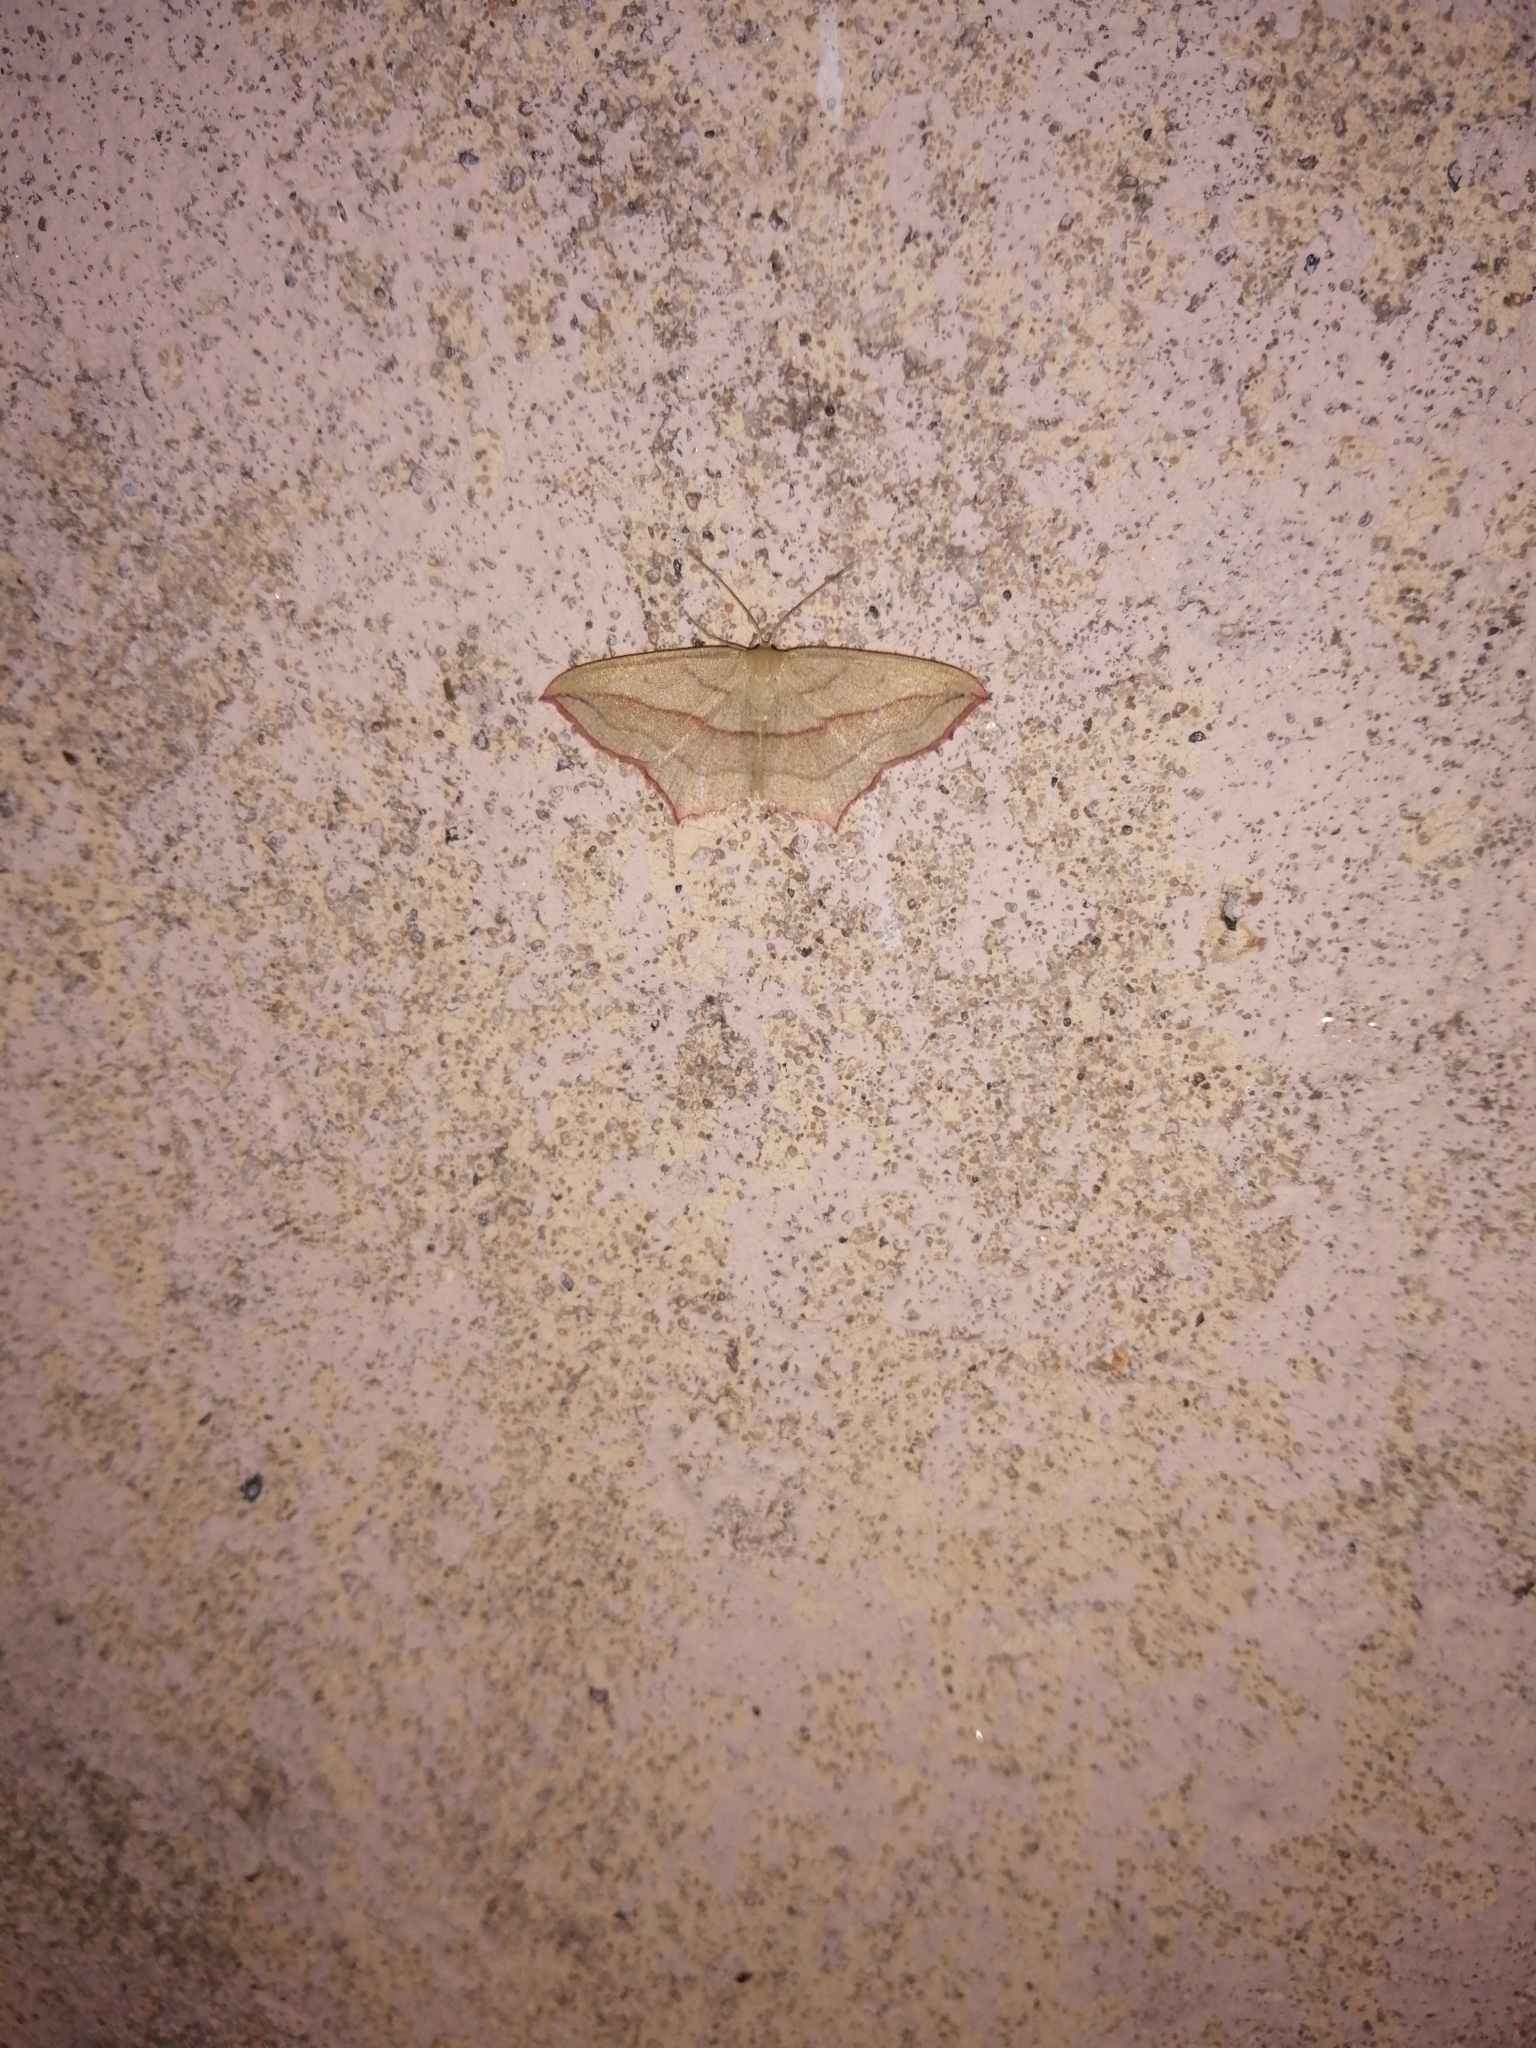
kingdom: Animalia
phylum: Arthropoda
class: Insecta
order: Lepidoptera
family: Geometridae
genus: Timandra
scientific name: Timandra comae
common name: Blood-vein
